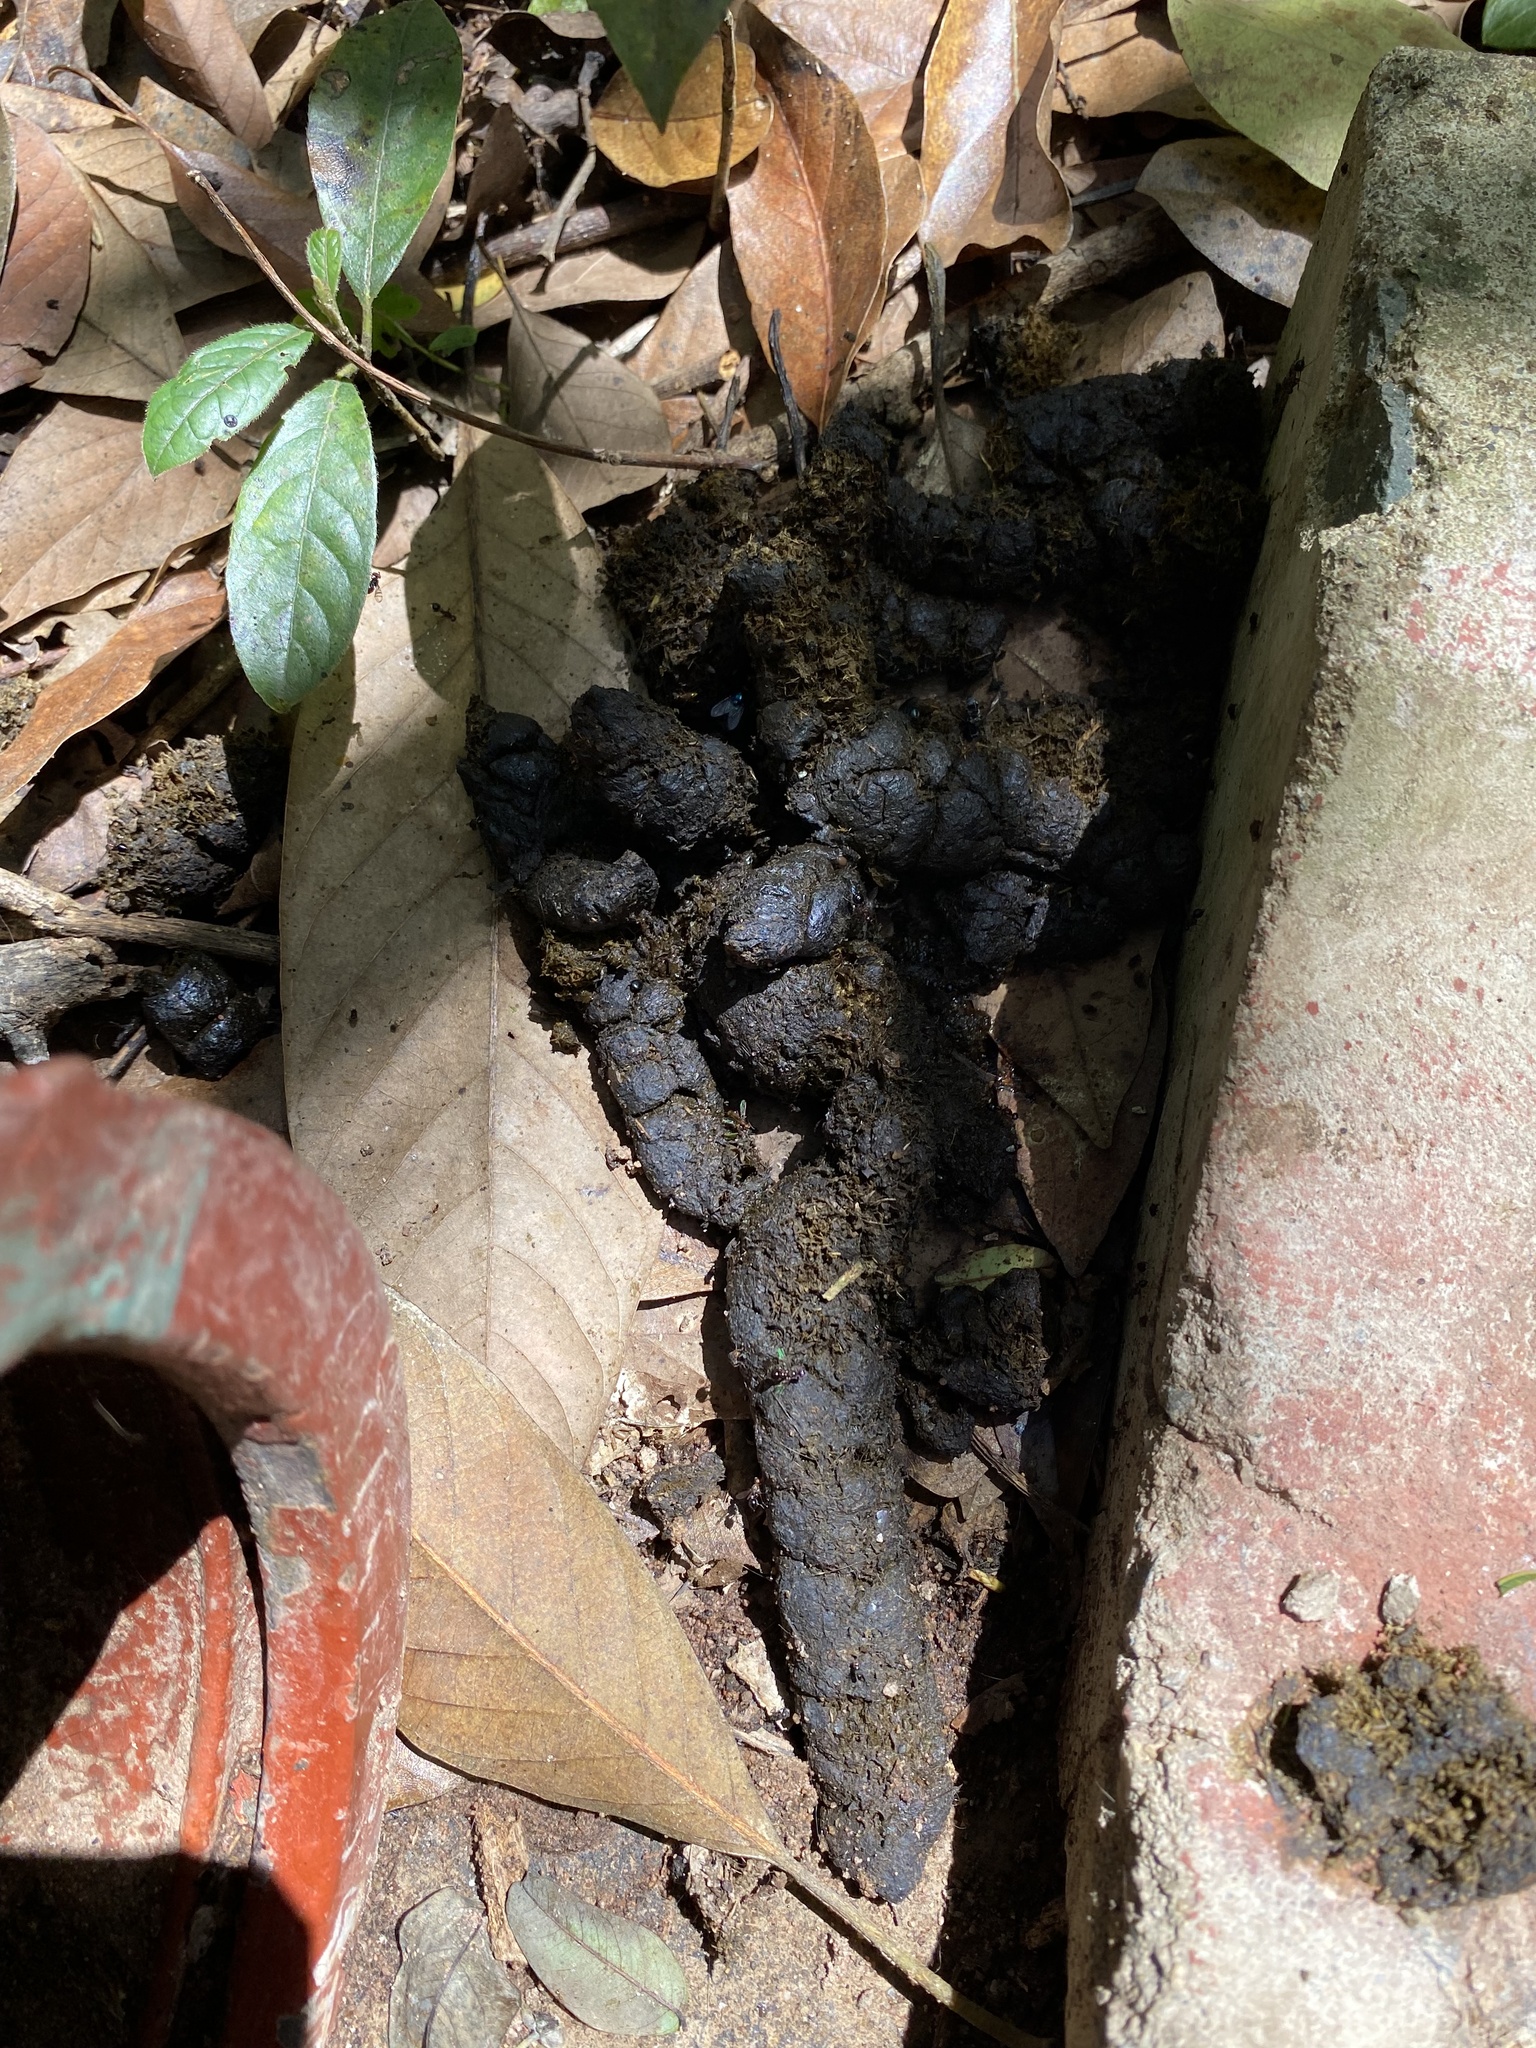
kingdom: Animalia
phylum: Chordata
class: Mammalia
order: Artiodactyla
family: Suidae
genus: Potamochoerus
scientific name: Potamochoerus larvatus
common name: Bushpig
